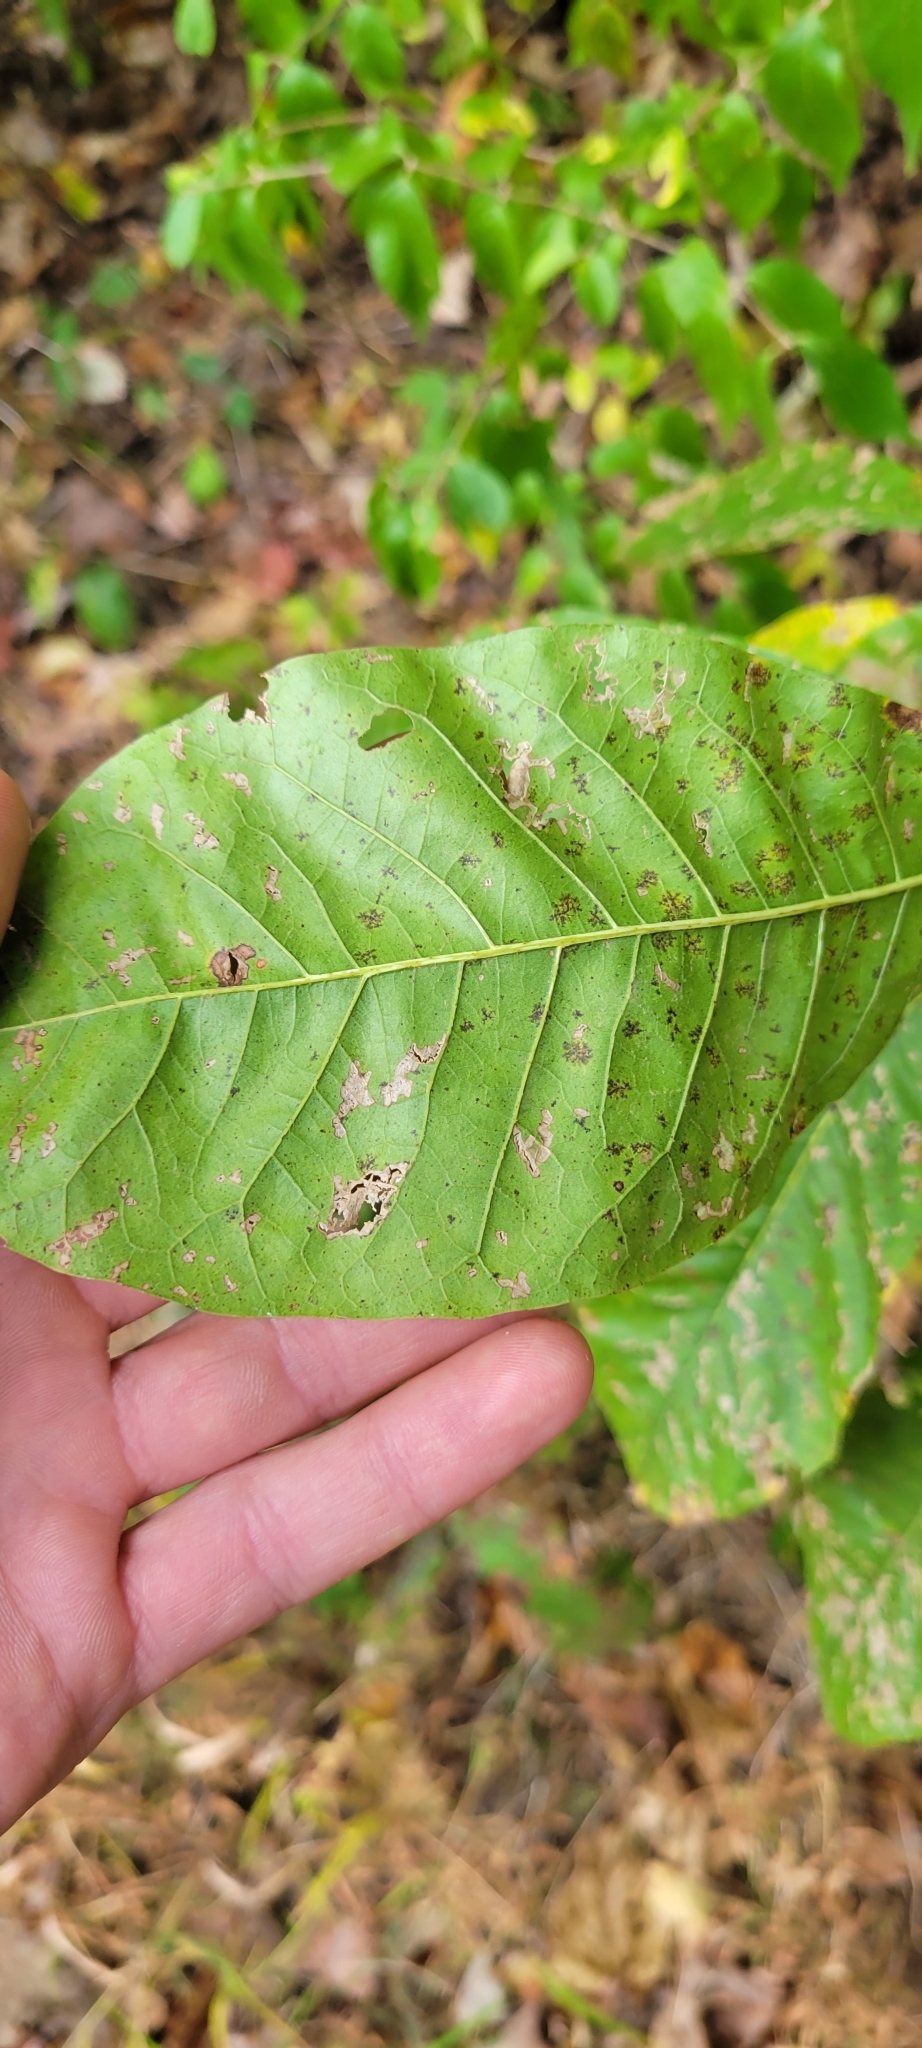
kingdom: Plantae
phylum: Tracheophyta
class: Magnoliopsida
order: Fagales
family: Fagaceae
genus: Quercus
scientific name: Quercus imbricaria
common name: Shingle oak
